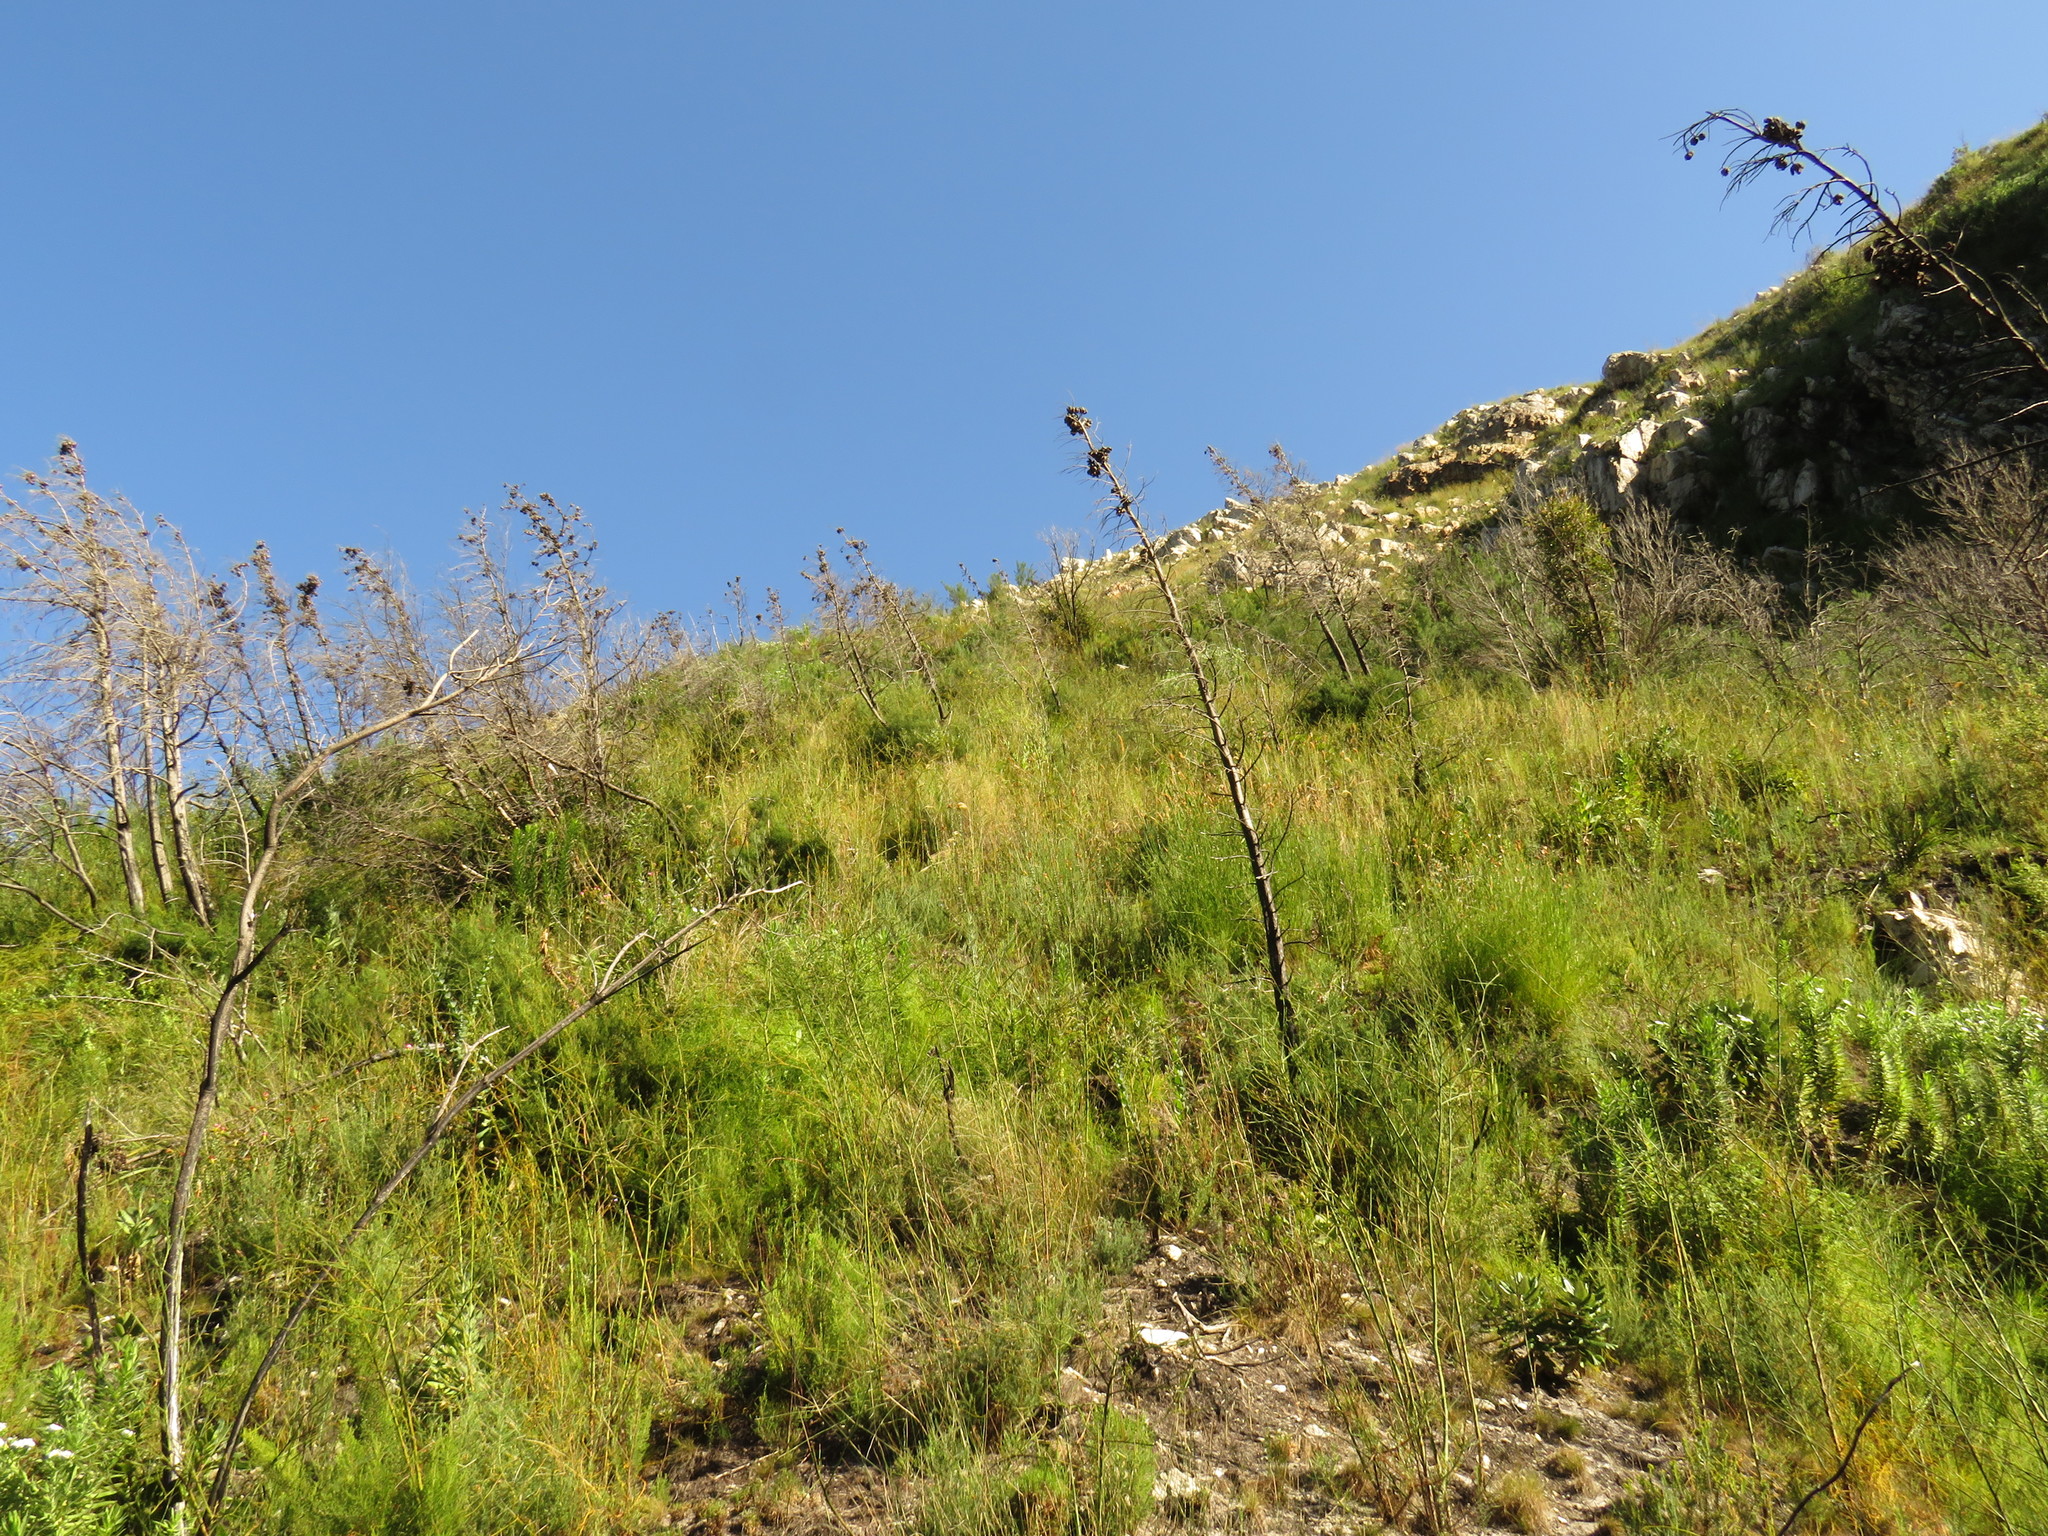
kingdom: Plantae
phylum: Tracheophyta
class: Magnoliopsida
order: Myrtales
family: Penaeaceae
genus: Saltera
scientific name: Saltera sarcocolla
